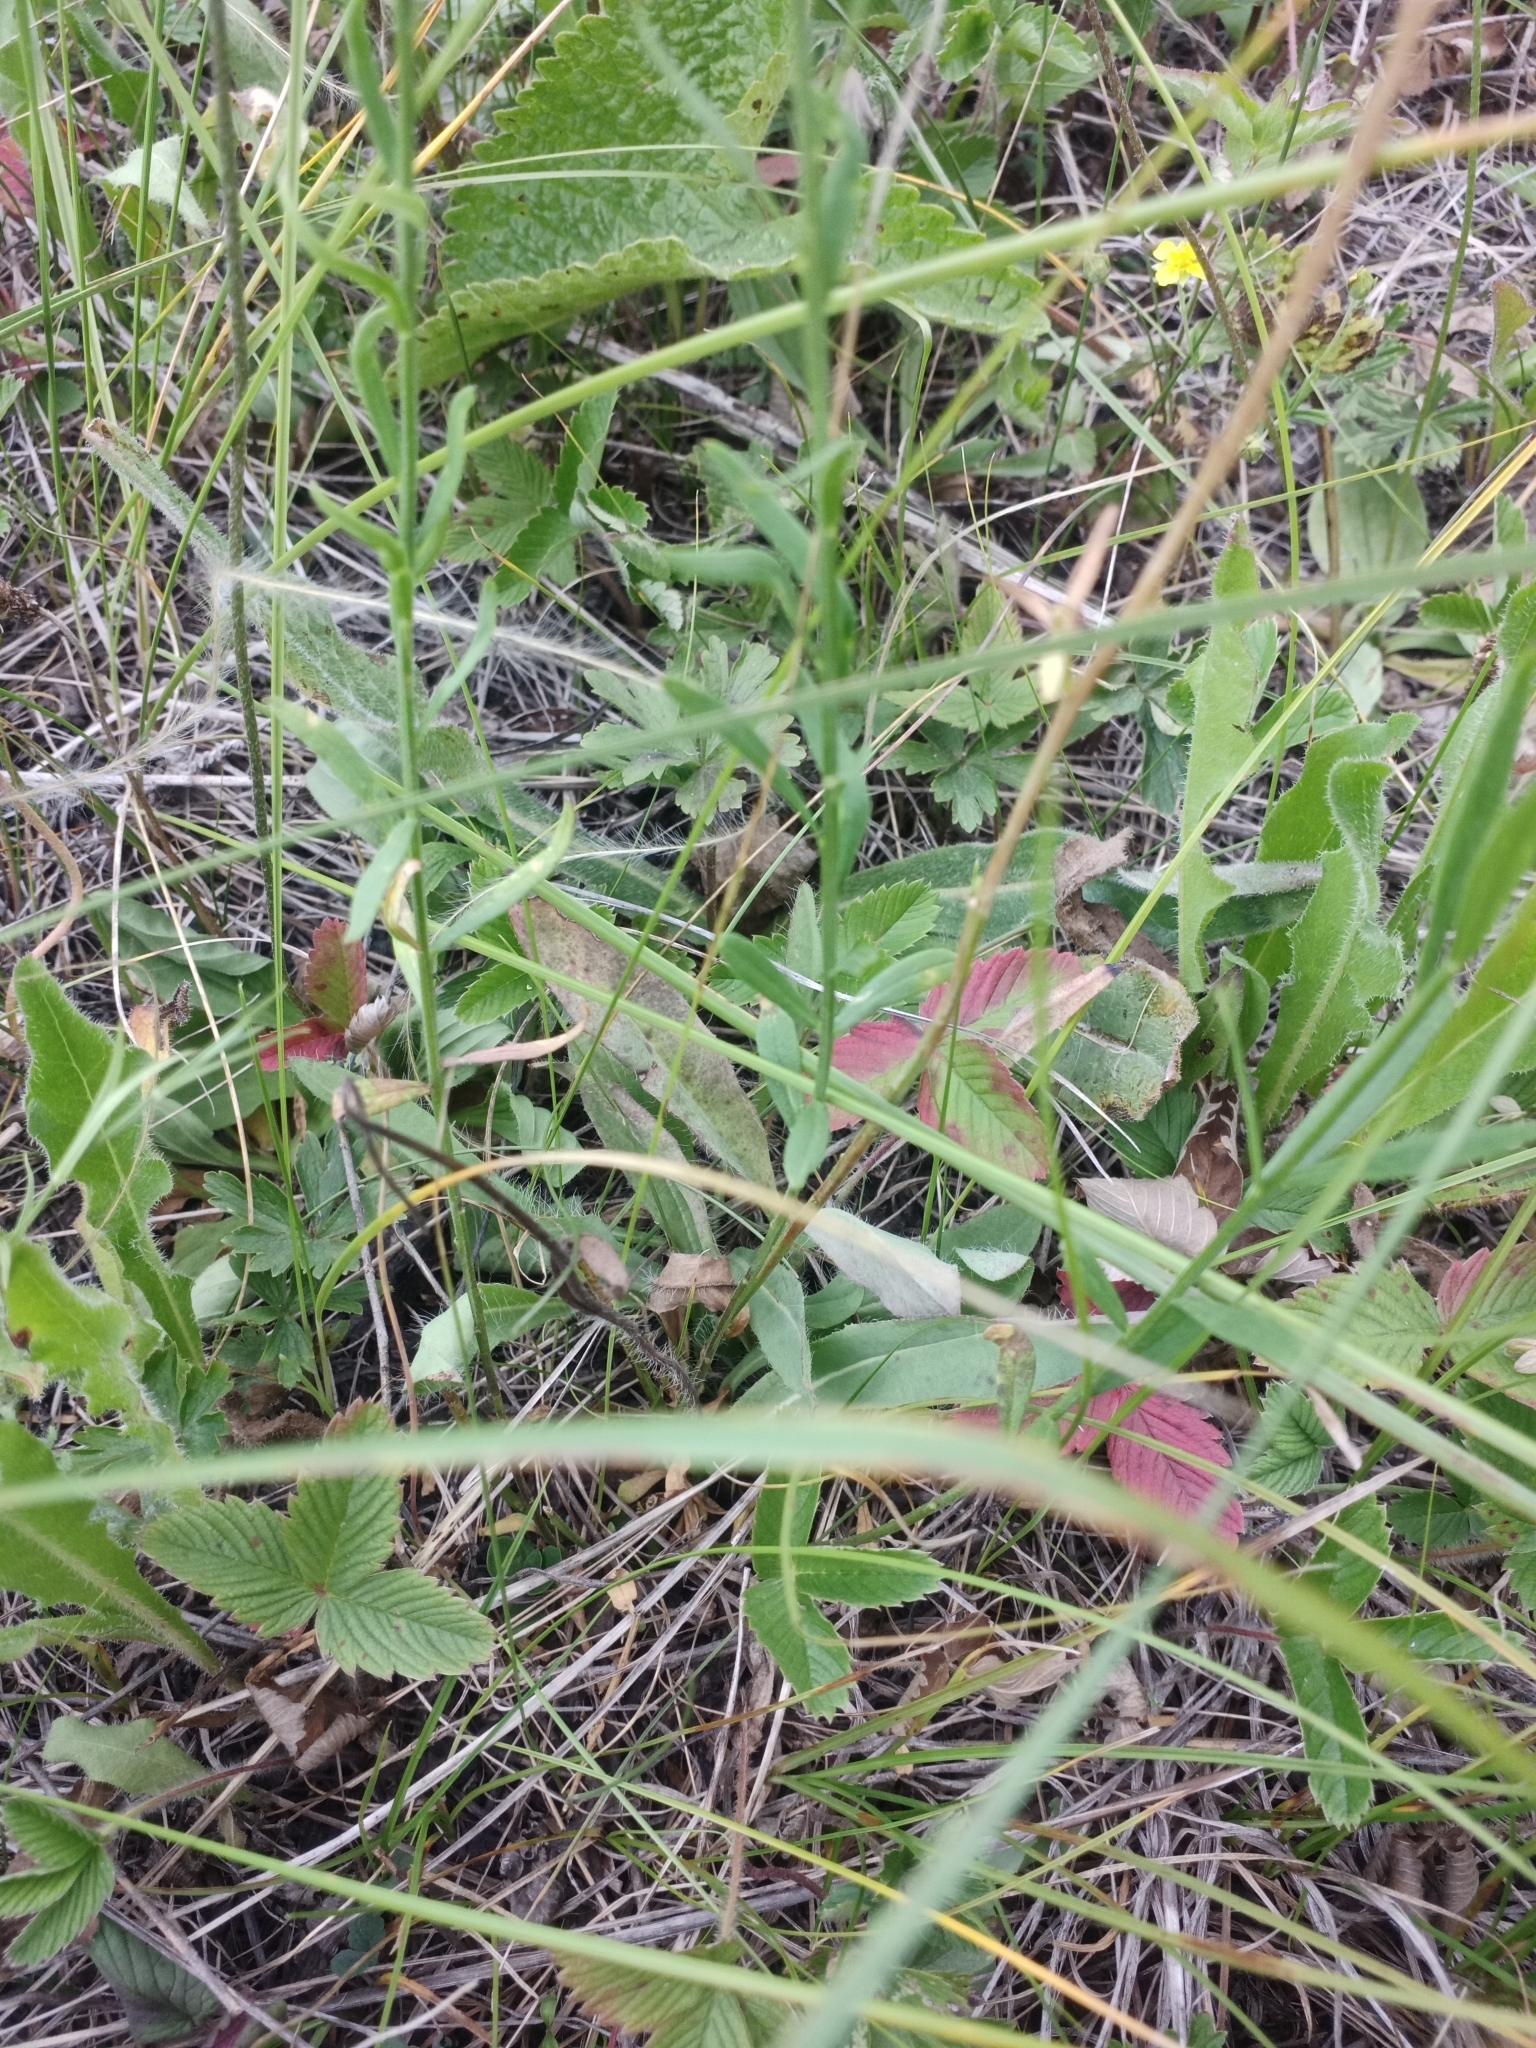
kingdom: Plantae
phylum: Tracheophyta
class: Magnoliopsida
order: Fabales
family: Polygalaceae
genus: Polygala
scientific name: Polygala comosa
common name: Tufted milkwort
